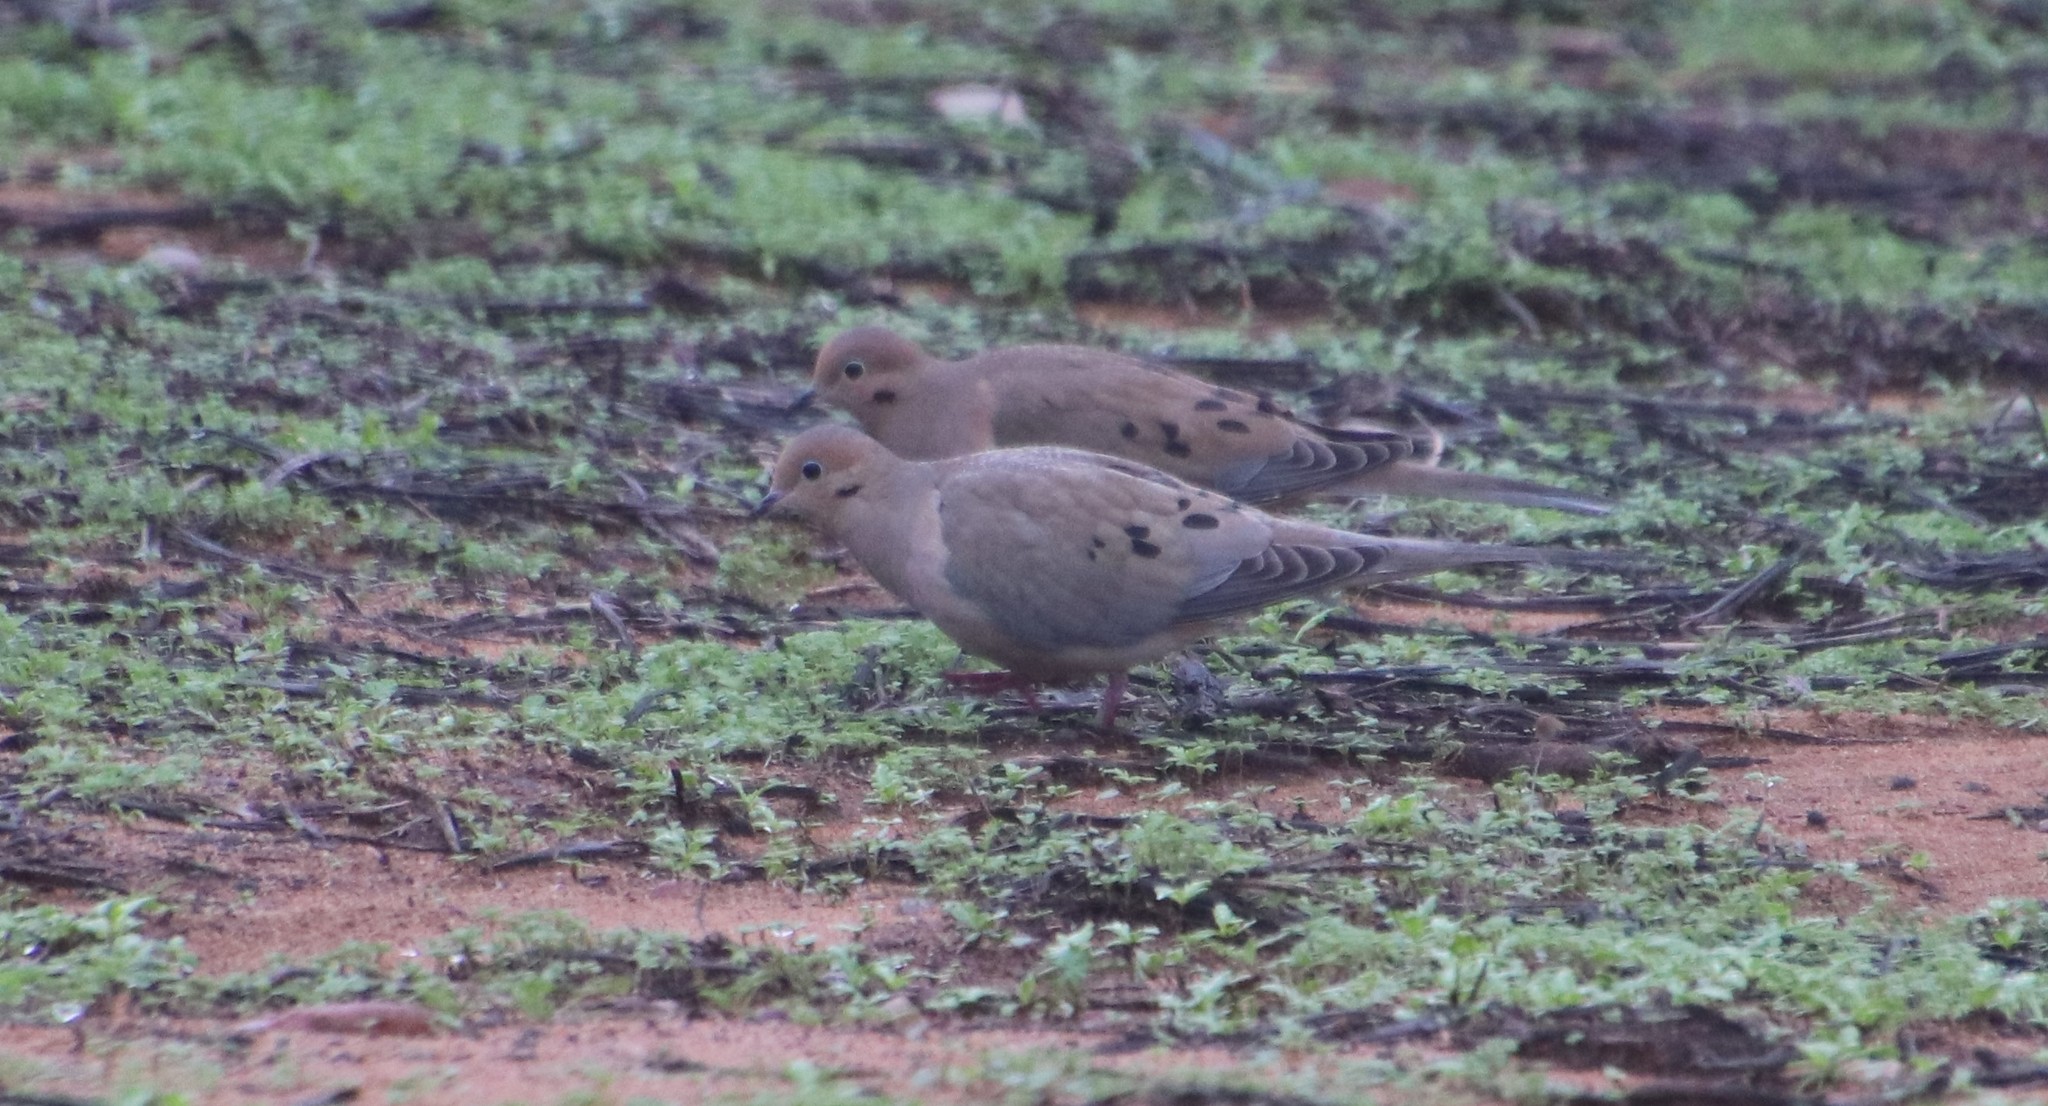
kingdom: Animalia
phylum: Chordata
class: Aves
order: Columbiformes
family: Columbidae
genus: Zenaida
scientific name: Zenaida macroura
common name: Mourning dove
